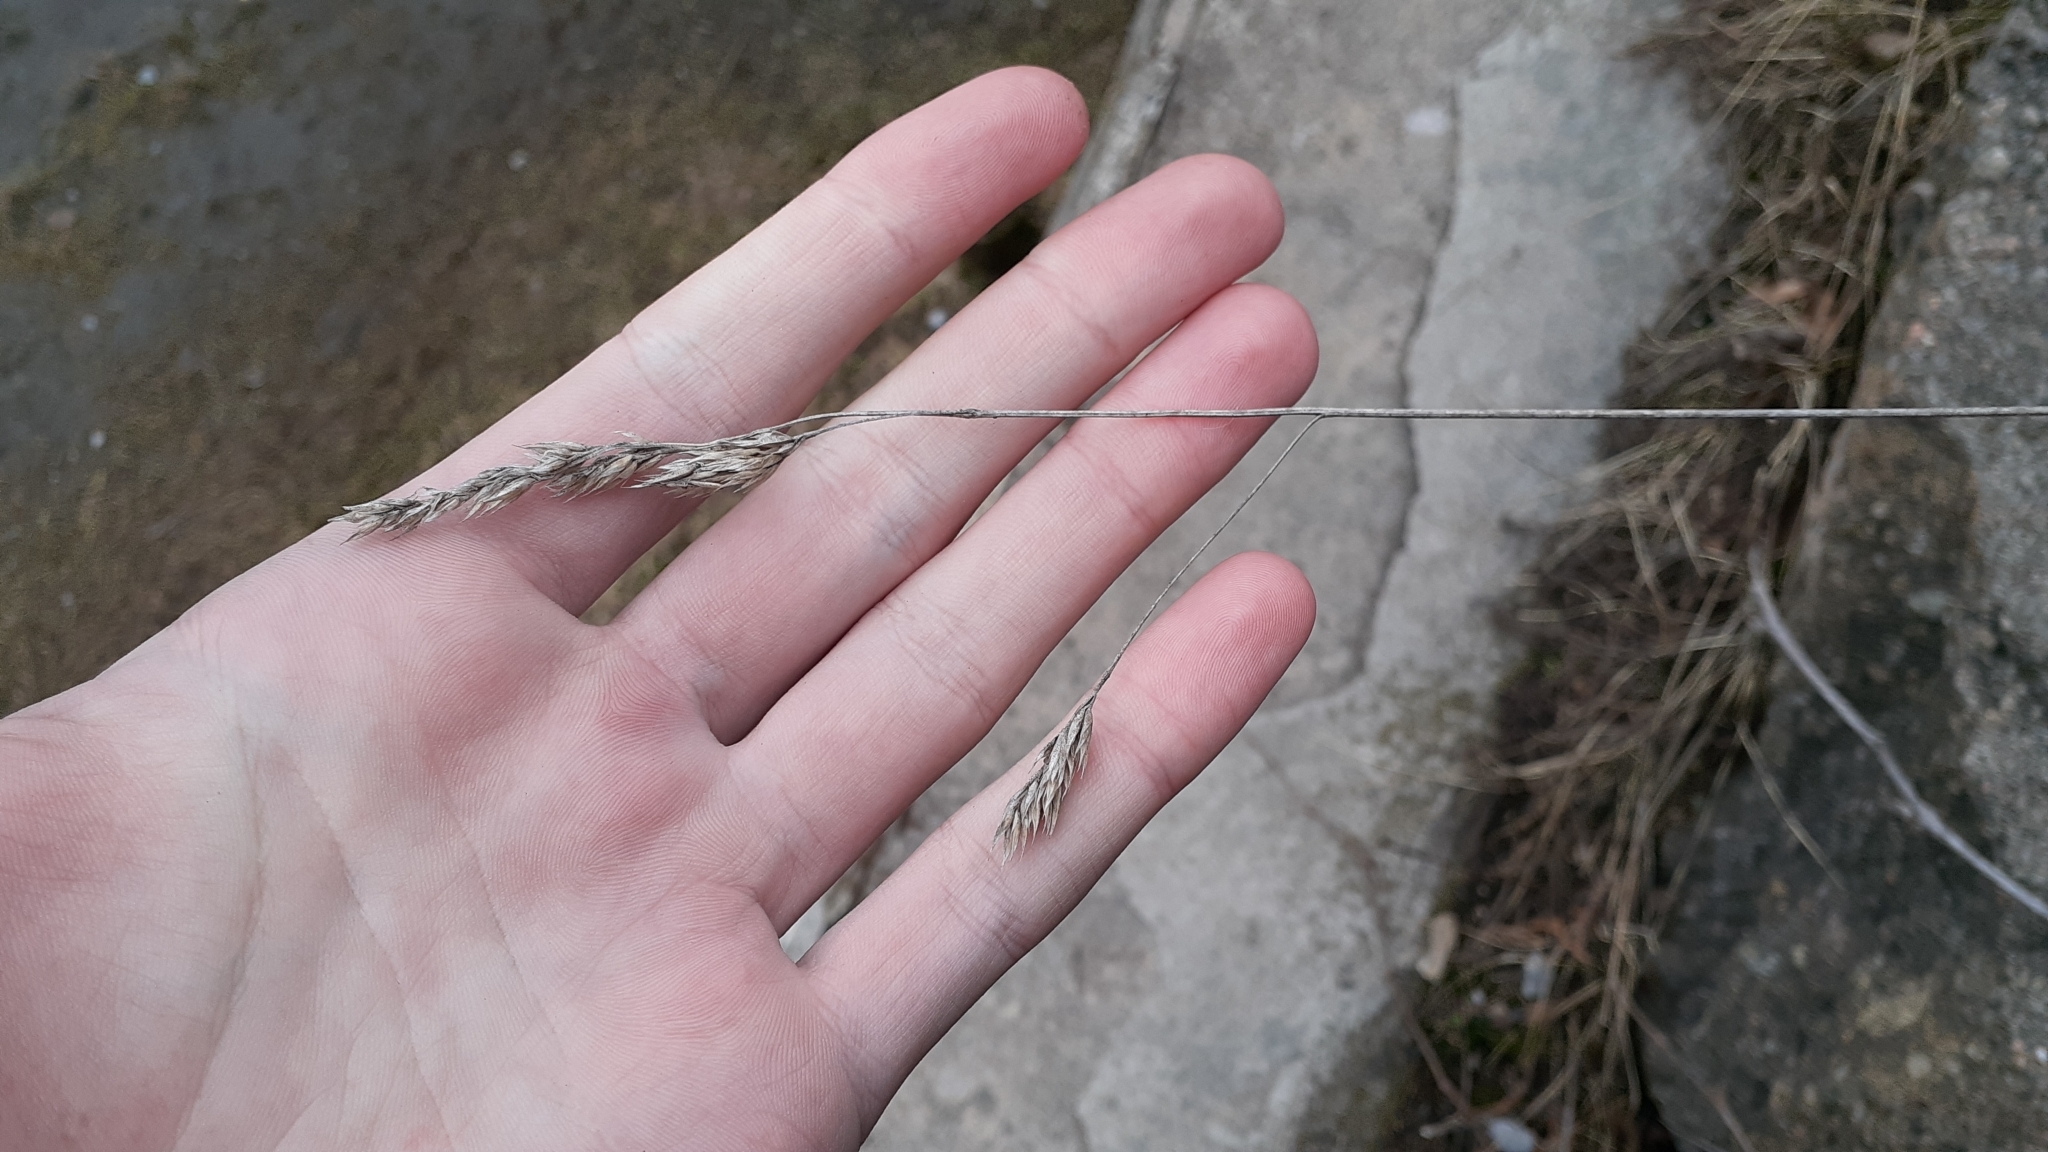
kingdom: Plantae
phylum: Tracheophyta
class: Liliopsida
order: Poales
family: Poaceae
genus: Dactylis
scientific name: Dactylis glomerata
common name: Orchardgrass
